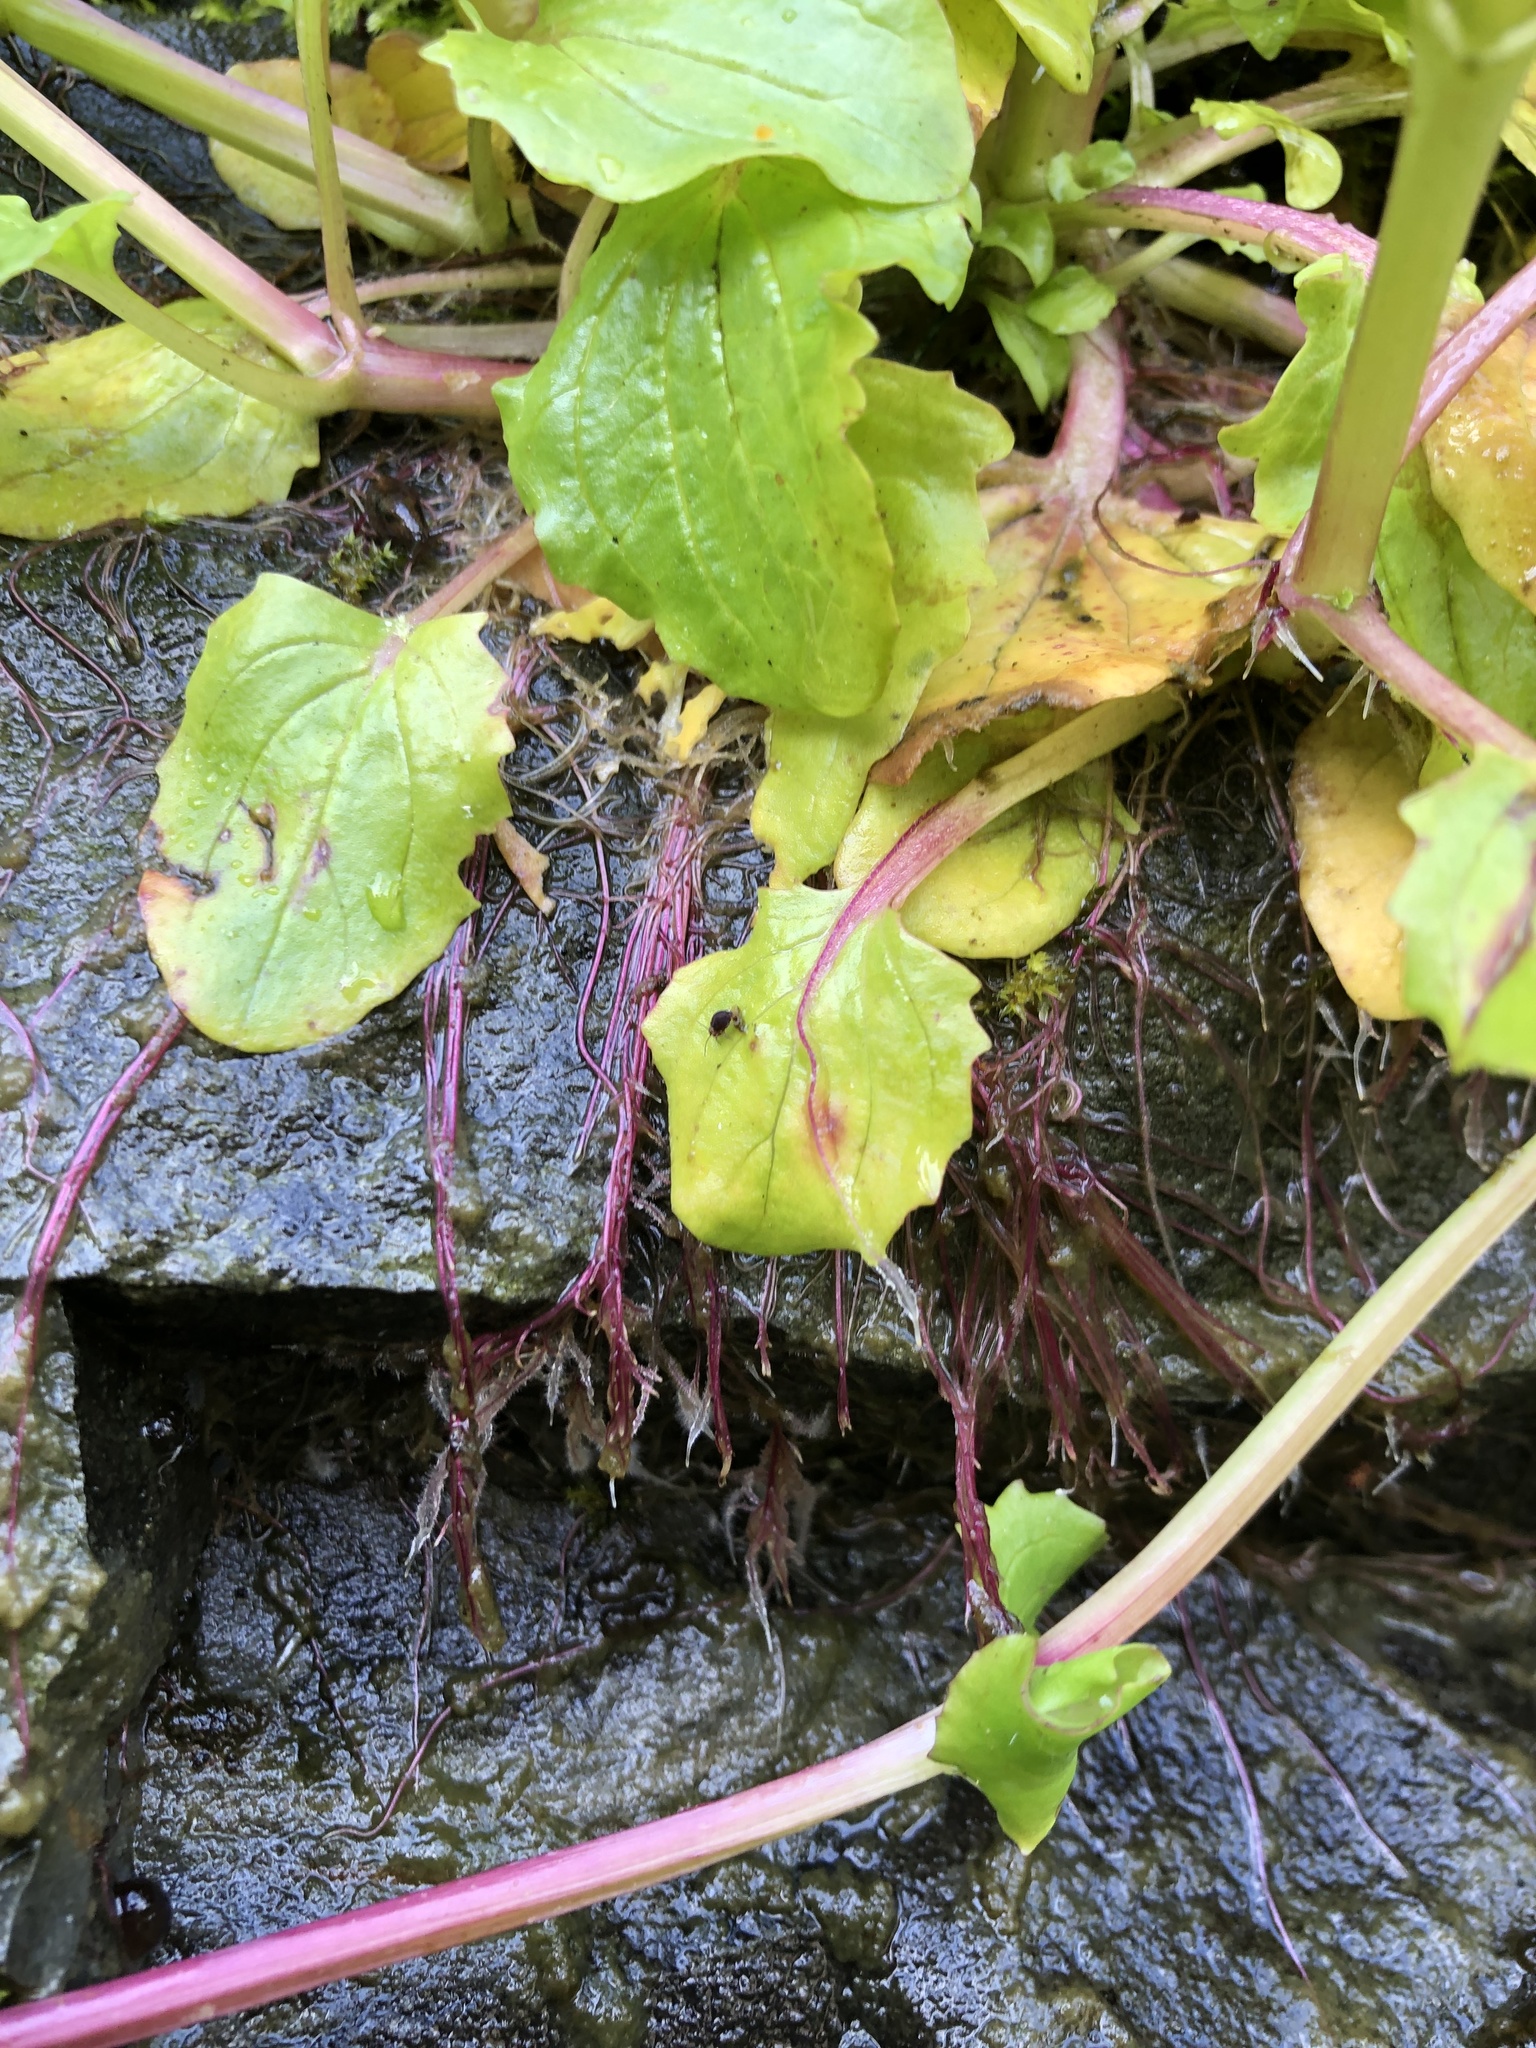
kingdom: Plantae
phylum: Tracheophyta
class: Magnoliopsida
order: Lamiales
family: Phrymaceae
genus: Erythranthe
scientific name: Erythranthe guttata
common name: Monkeyflower
